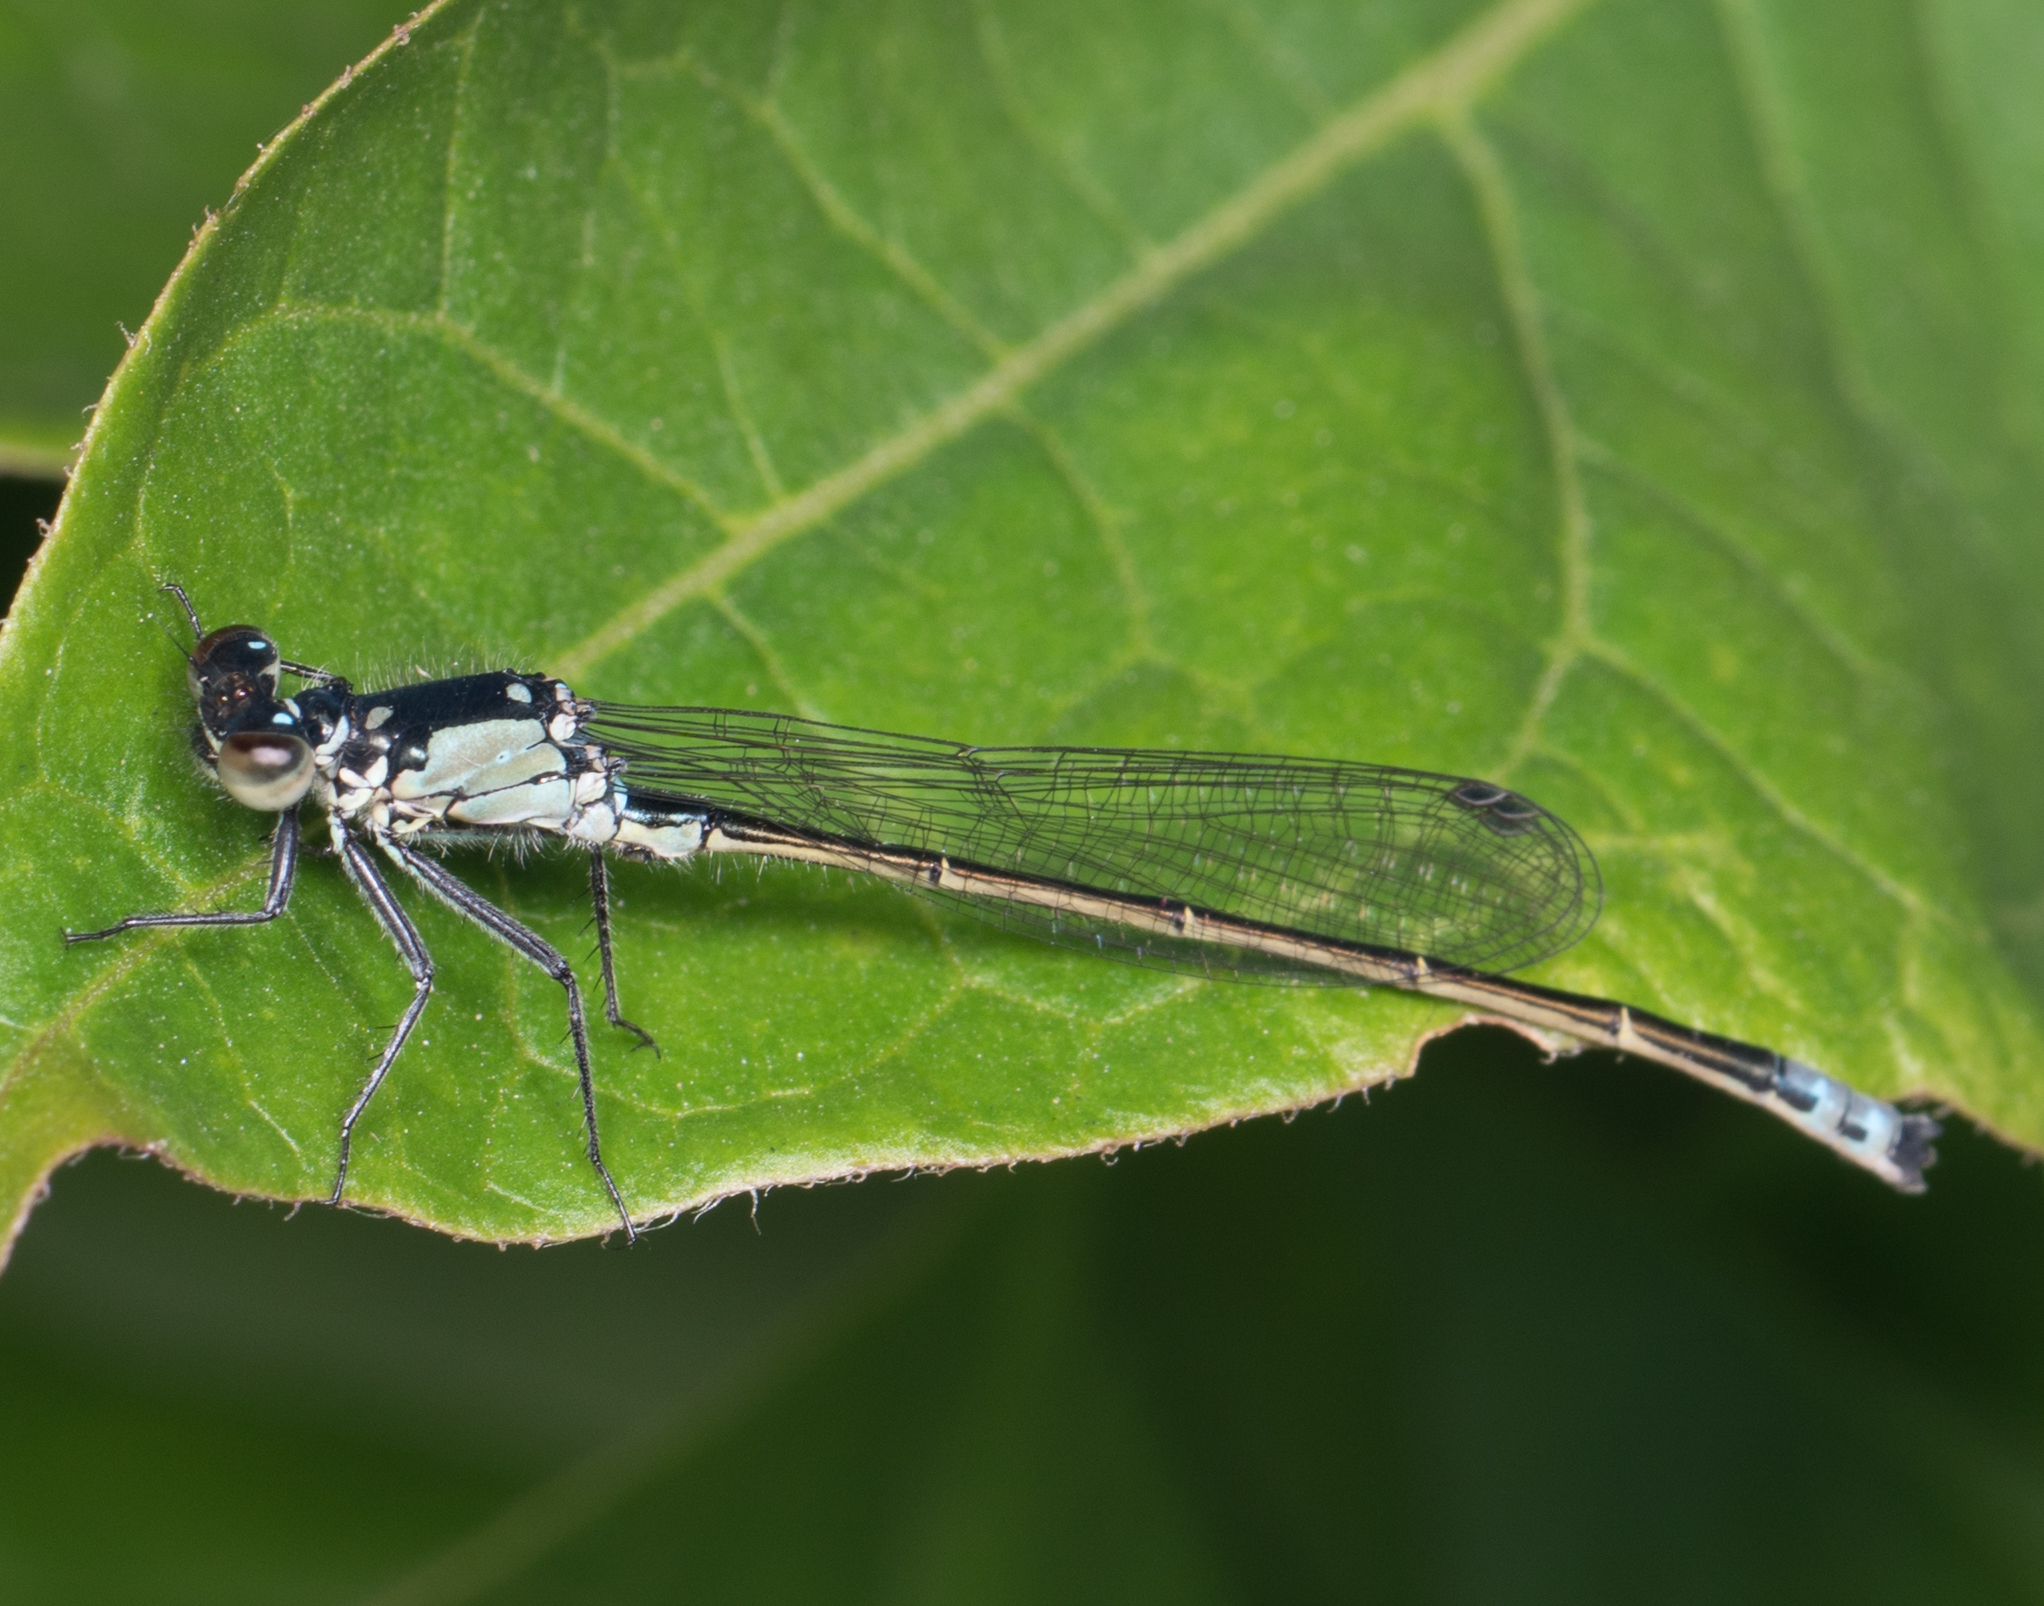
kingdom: Animalia
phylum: Arthropoda
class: Insecta
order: Odonata
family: Coenagrionidae
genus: Ischnura
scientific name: Ischnura cervula
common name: Pacific forktail
